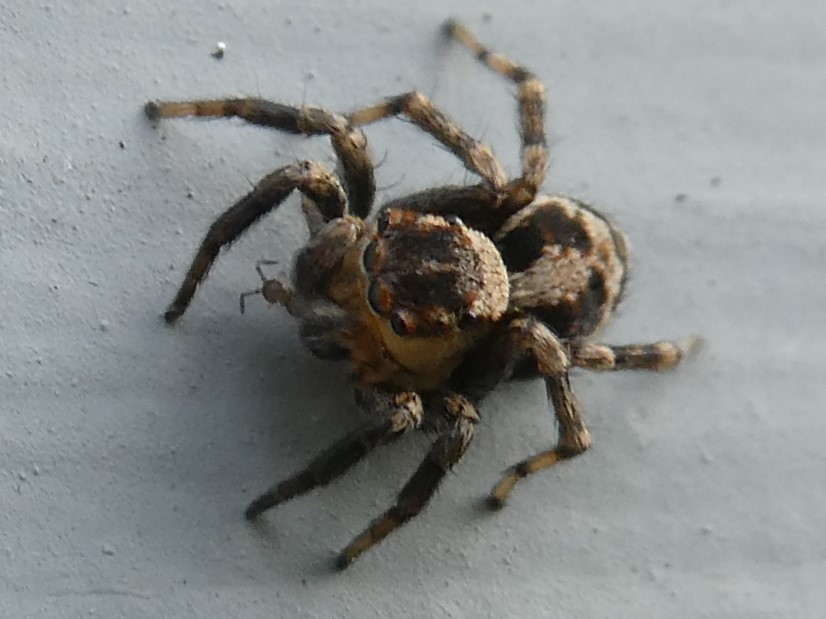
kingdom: Animalia
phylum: Arthropoda
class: Arachnida
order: Araneae
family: Salticidae
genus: Naphrys
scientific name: Naphrys pulex
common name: Flea jumping spider
